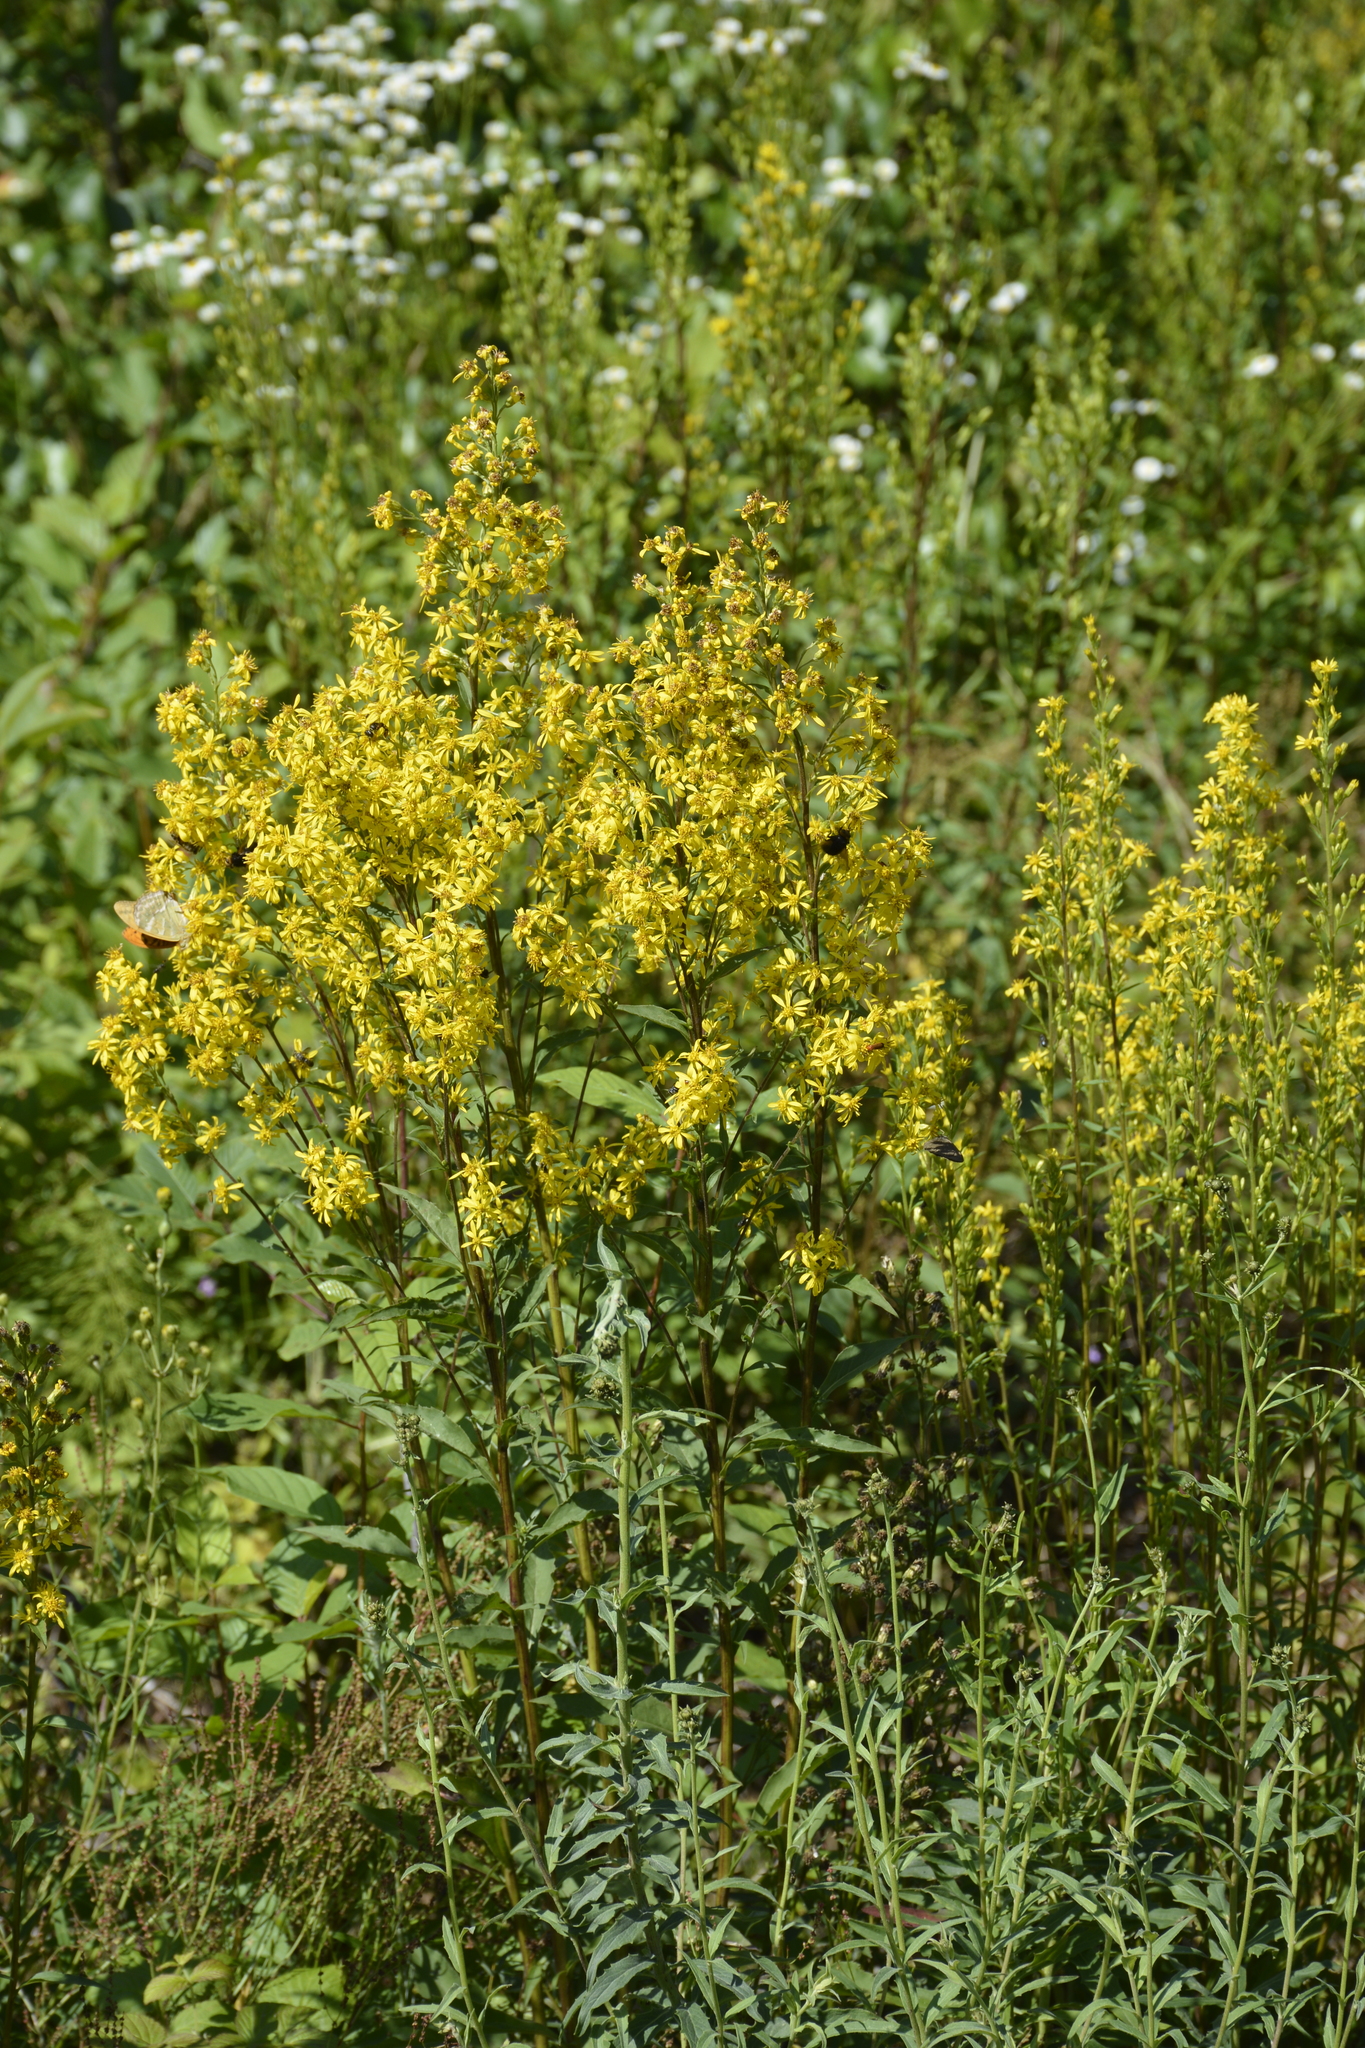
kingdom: Plantae
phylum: Tracheophyta
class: Magnoliopsida
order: Asterales
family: Asteraceae
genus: Solidago
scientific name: Solidago virgaurea
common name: Goldenrod
